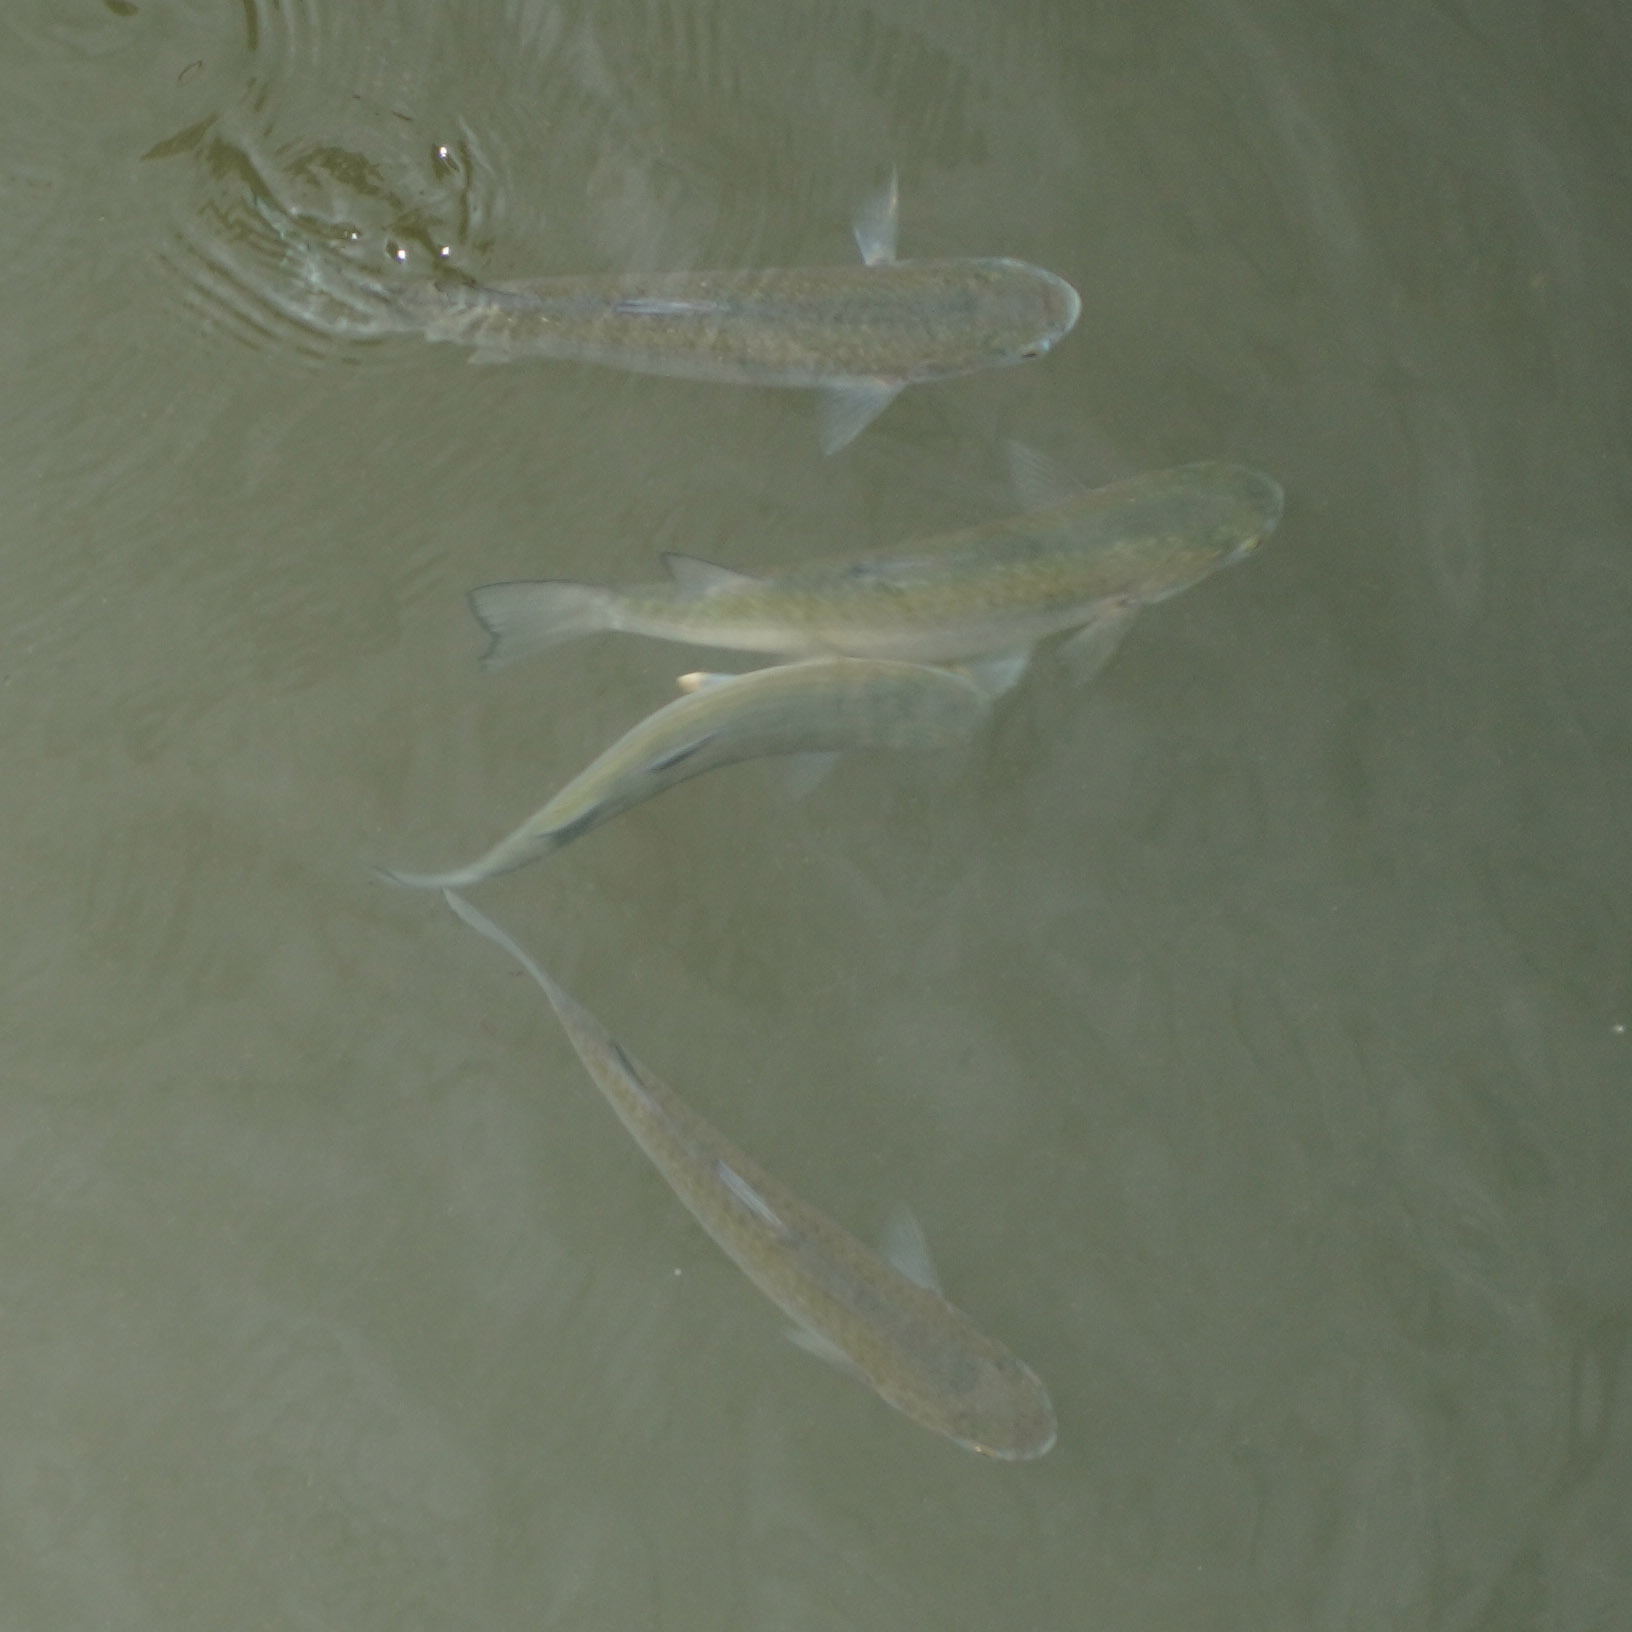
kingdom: Animalia
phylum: Chordata
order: Mugiliformes
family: Mugilidae
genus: Planiliza
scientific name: Planiliza subviridis
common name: Greenback mullet
